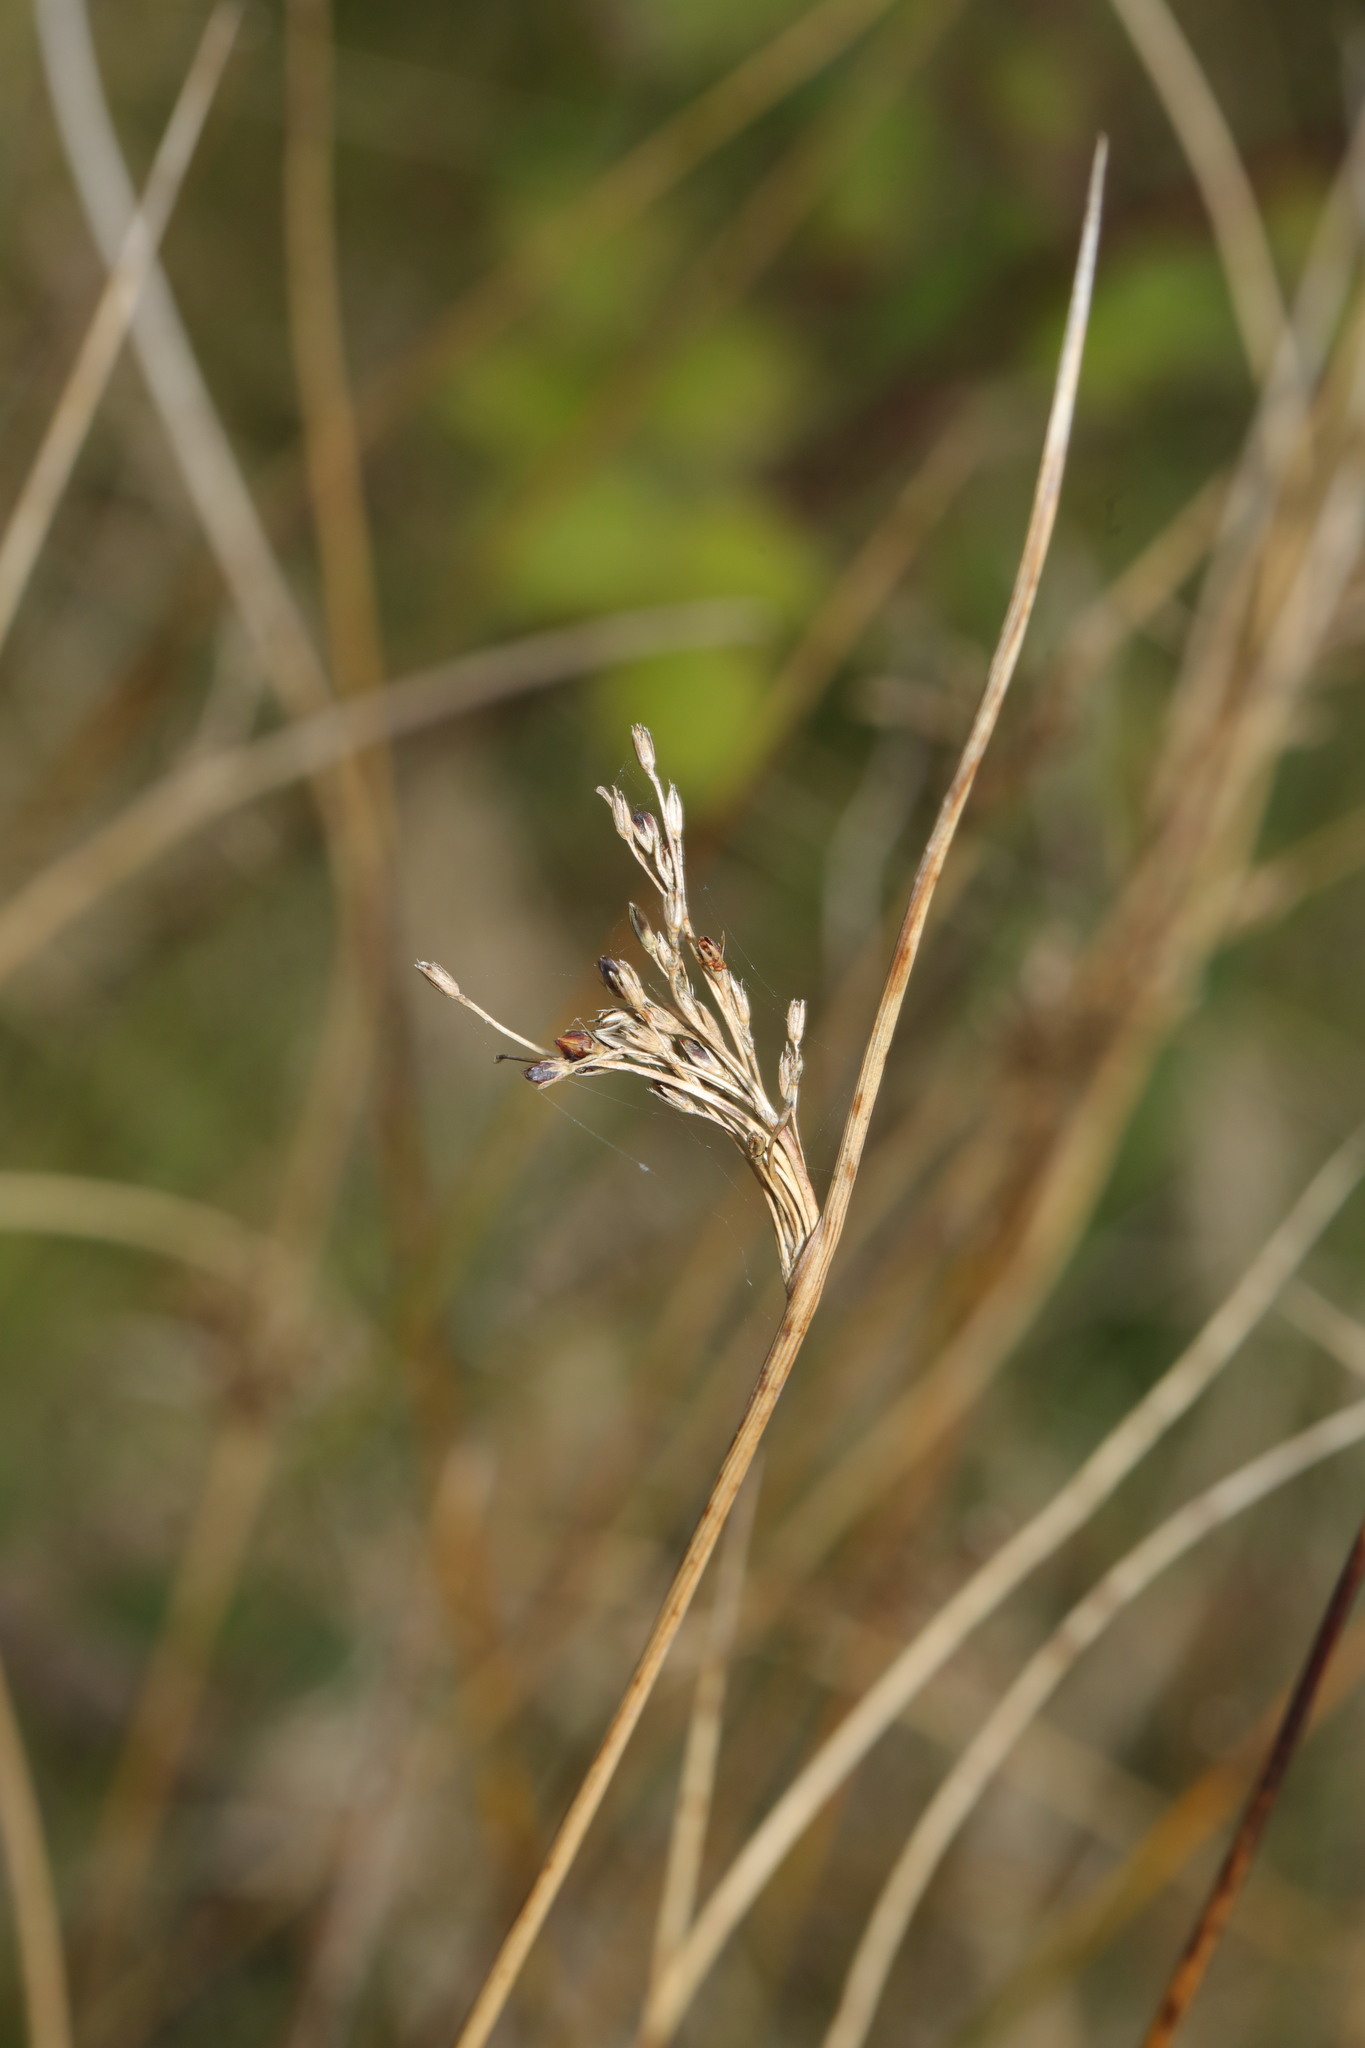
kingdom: Plantae
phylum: Tracheophyta
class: Liliopsida
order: Poales
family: Juncaceae
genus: Juncus
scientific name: Juncus inflexus
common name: Hard rush
